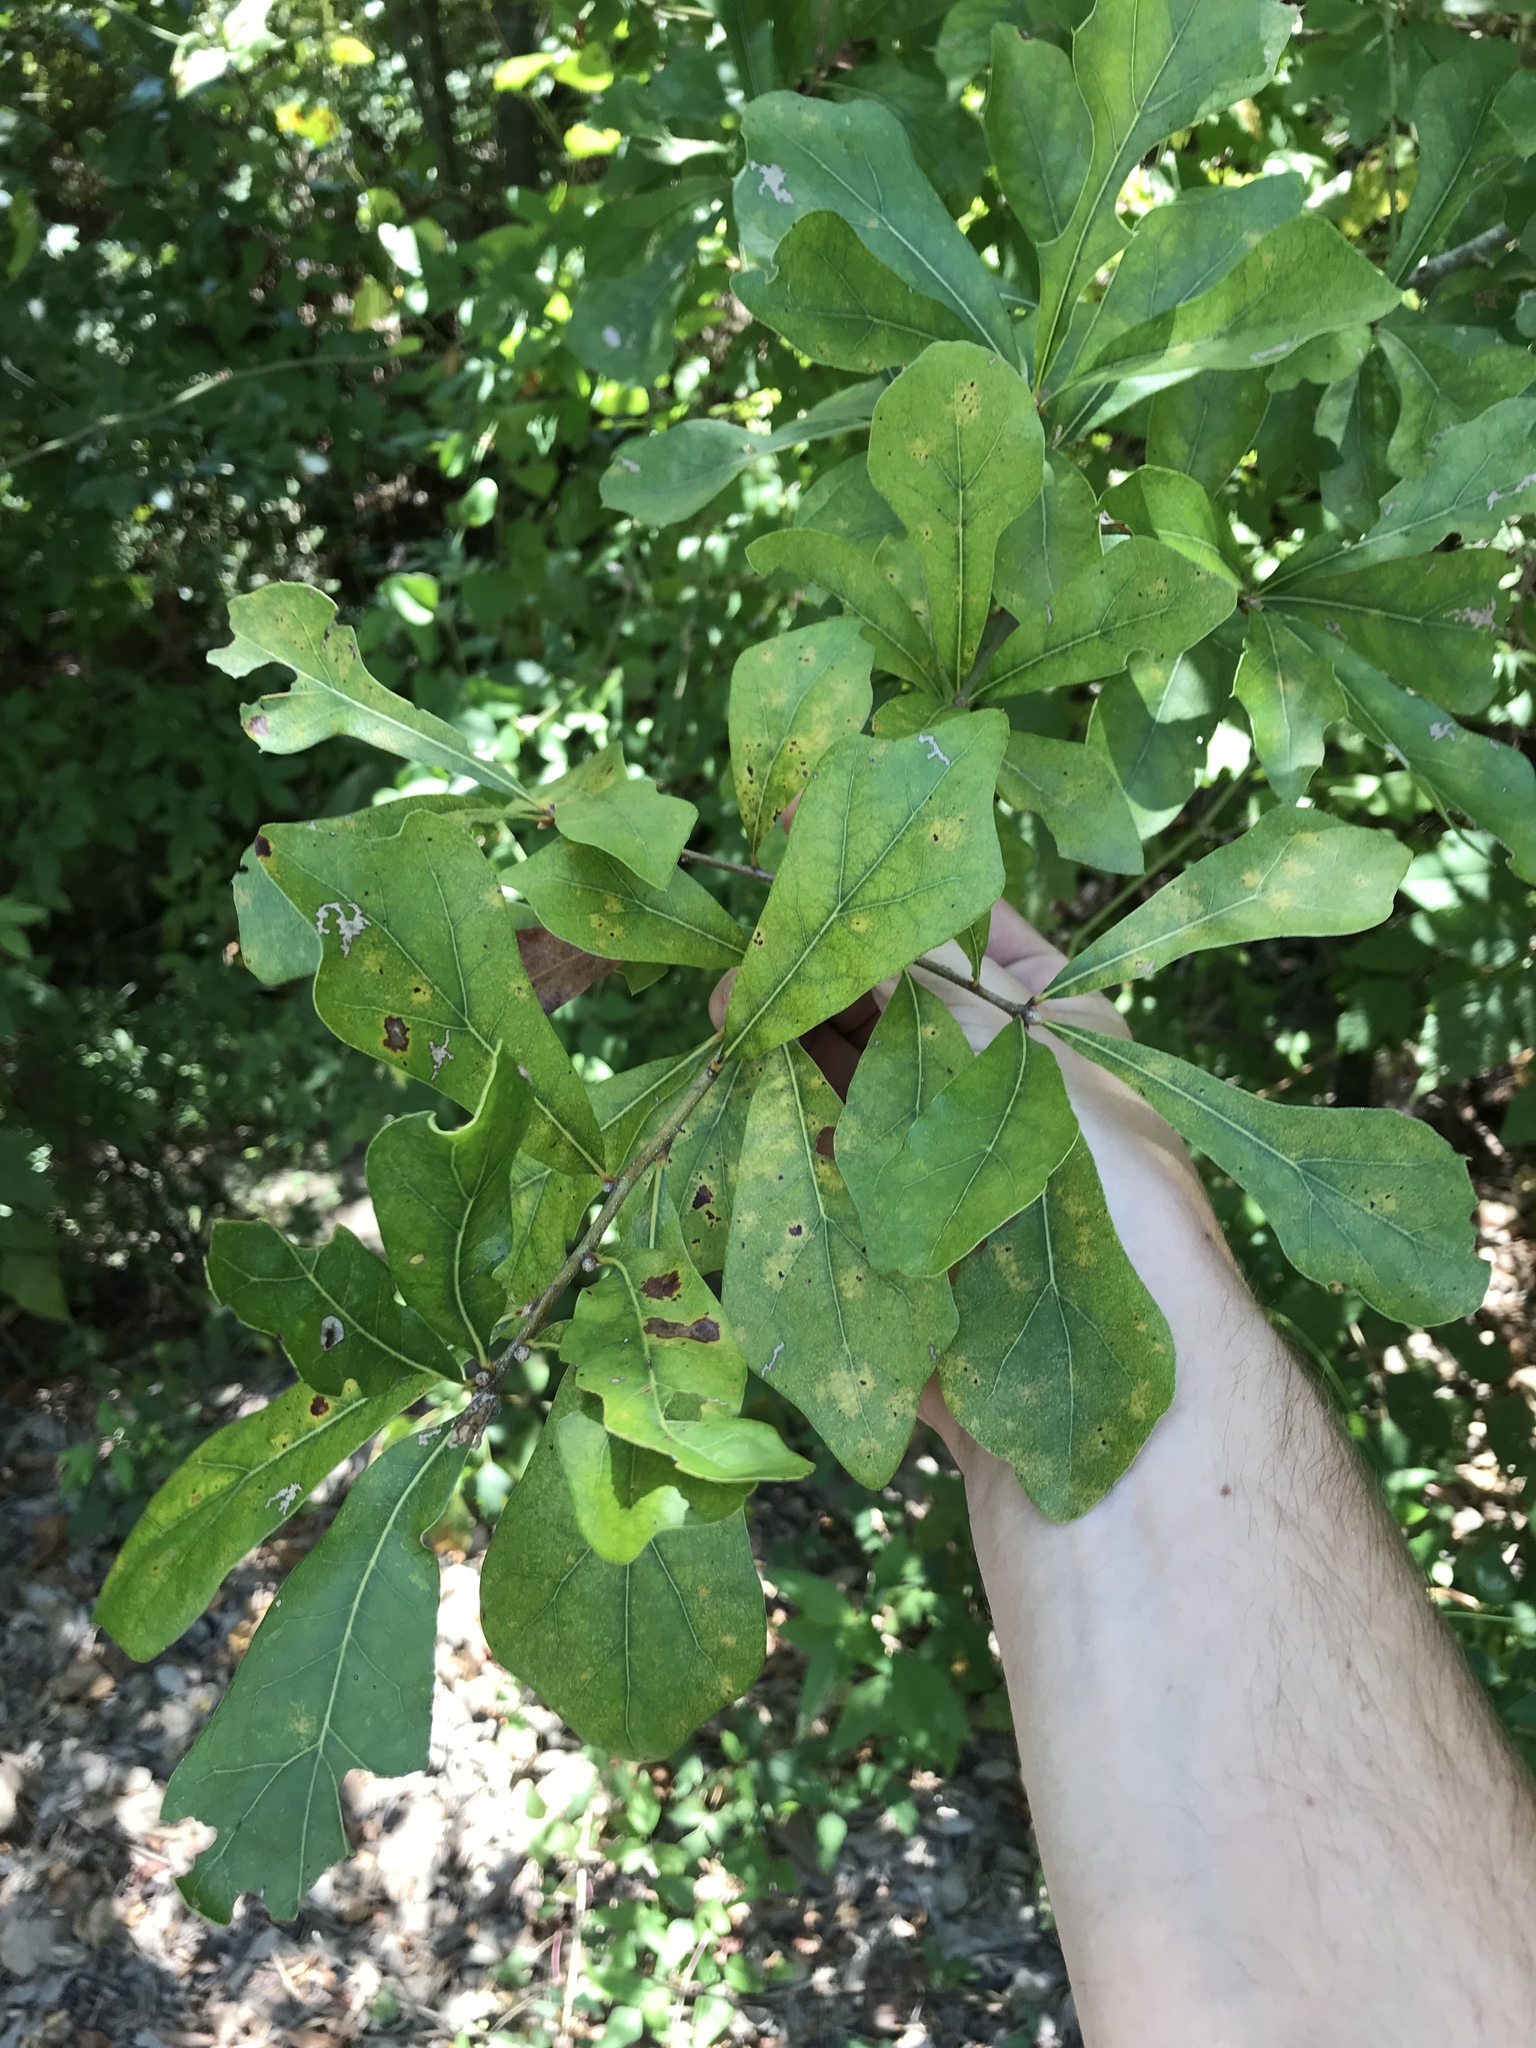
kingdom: Plantae
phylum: Tracheophyta
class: Magnoliopsida
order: Fagales
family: Fagaceae
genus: Quercus
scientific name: Quercus nigra
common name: Water oak
